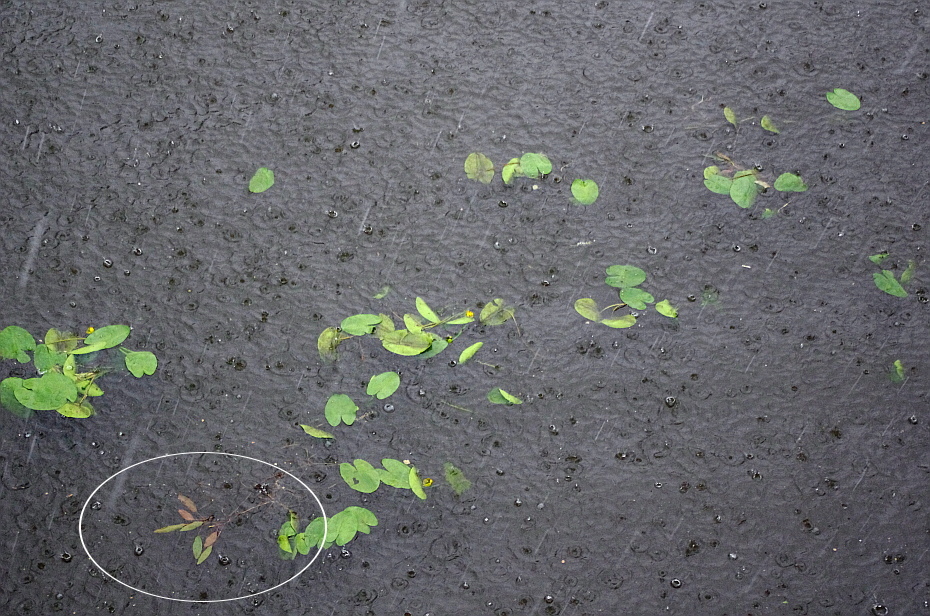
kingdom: Plantae
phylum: Tracheophyta
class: Liliopsida
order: Alismatales
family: Potamogetonaceae
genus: Potamogeton
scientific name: Potamogeton nodosus
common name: Loddon pondweed
